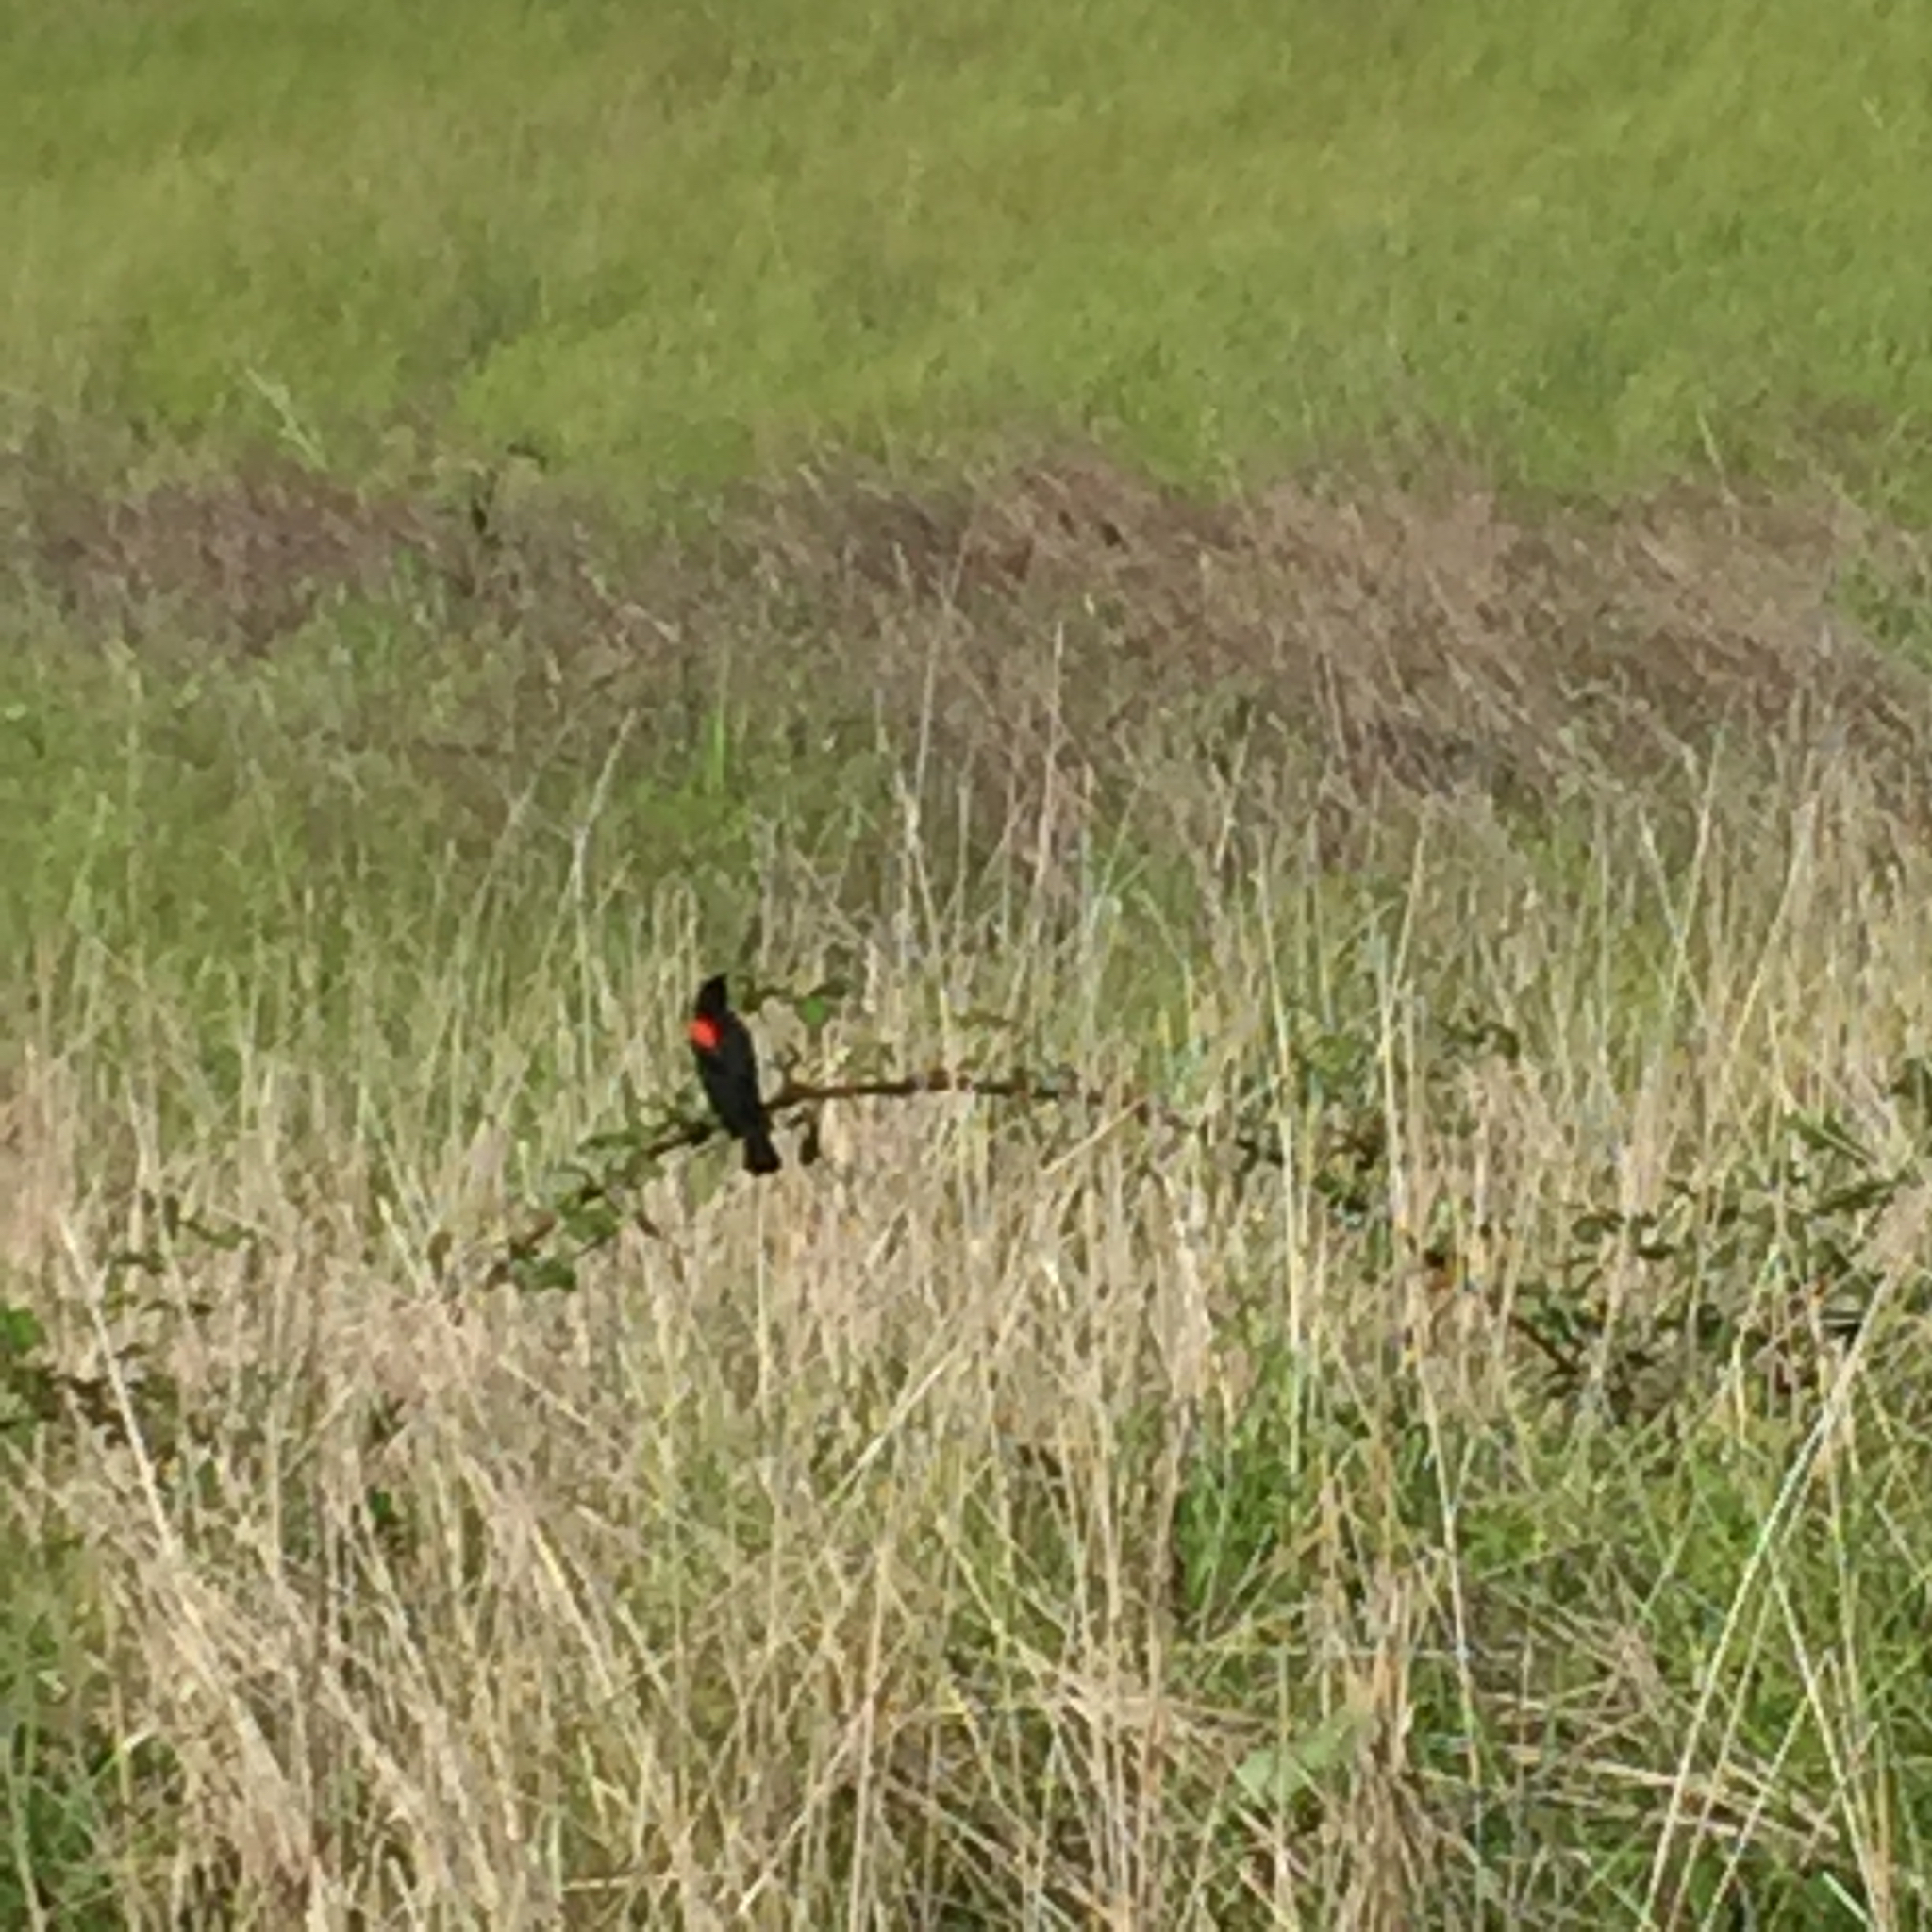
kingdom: Animalia
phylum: Chordata
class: Aves
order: Passeriformes
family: Icteridae
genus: Agelaius
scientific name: Agelaius phoeniceus
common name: Red-winged blackbird
